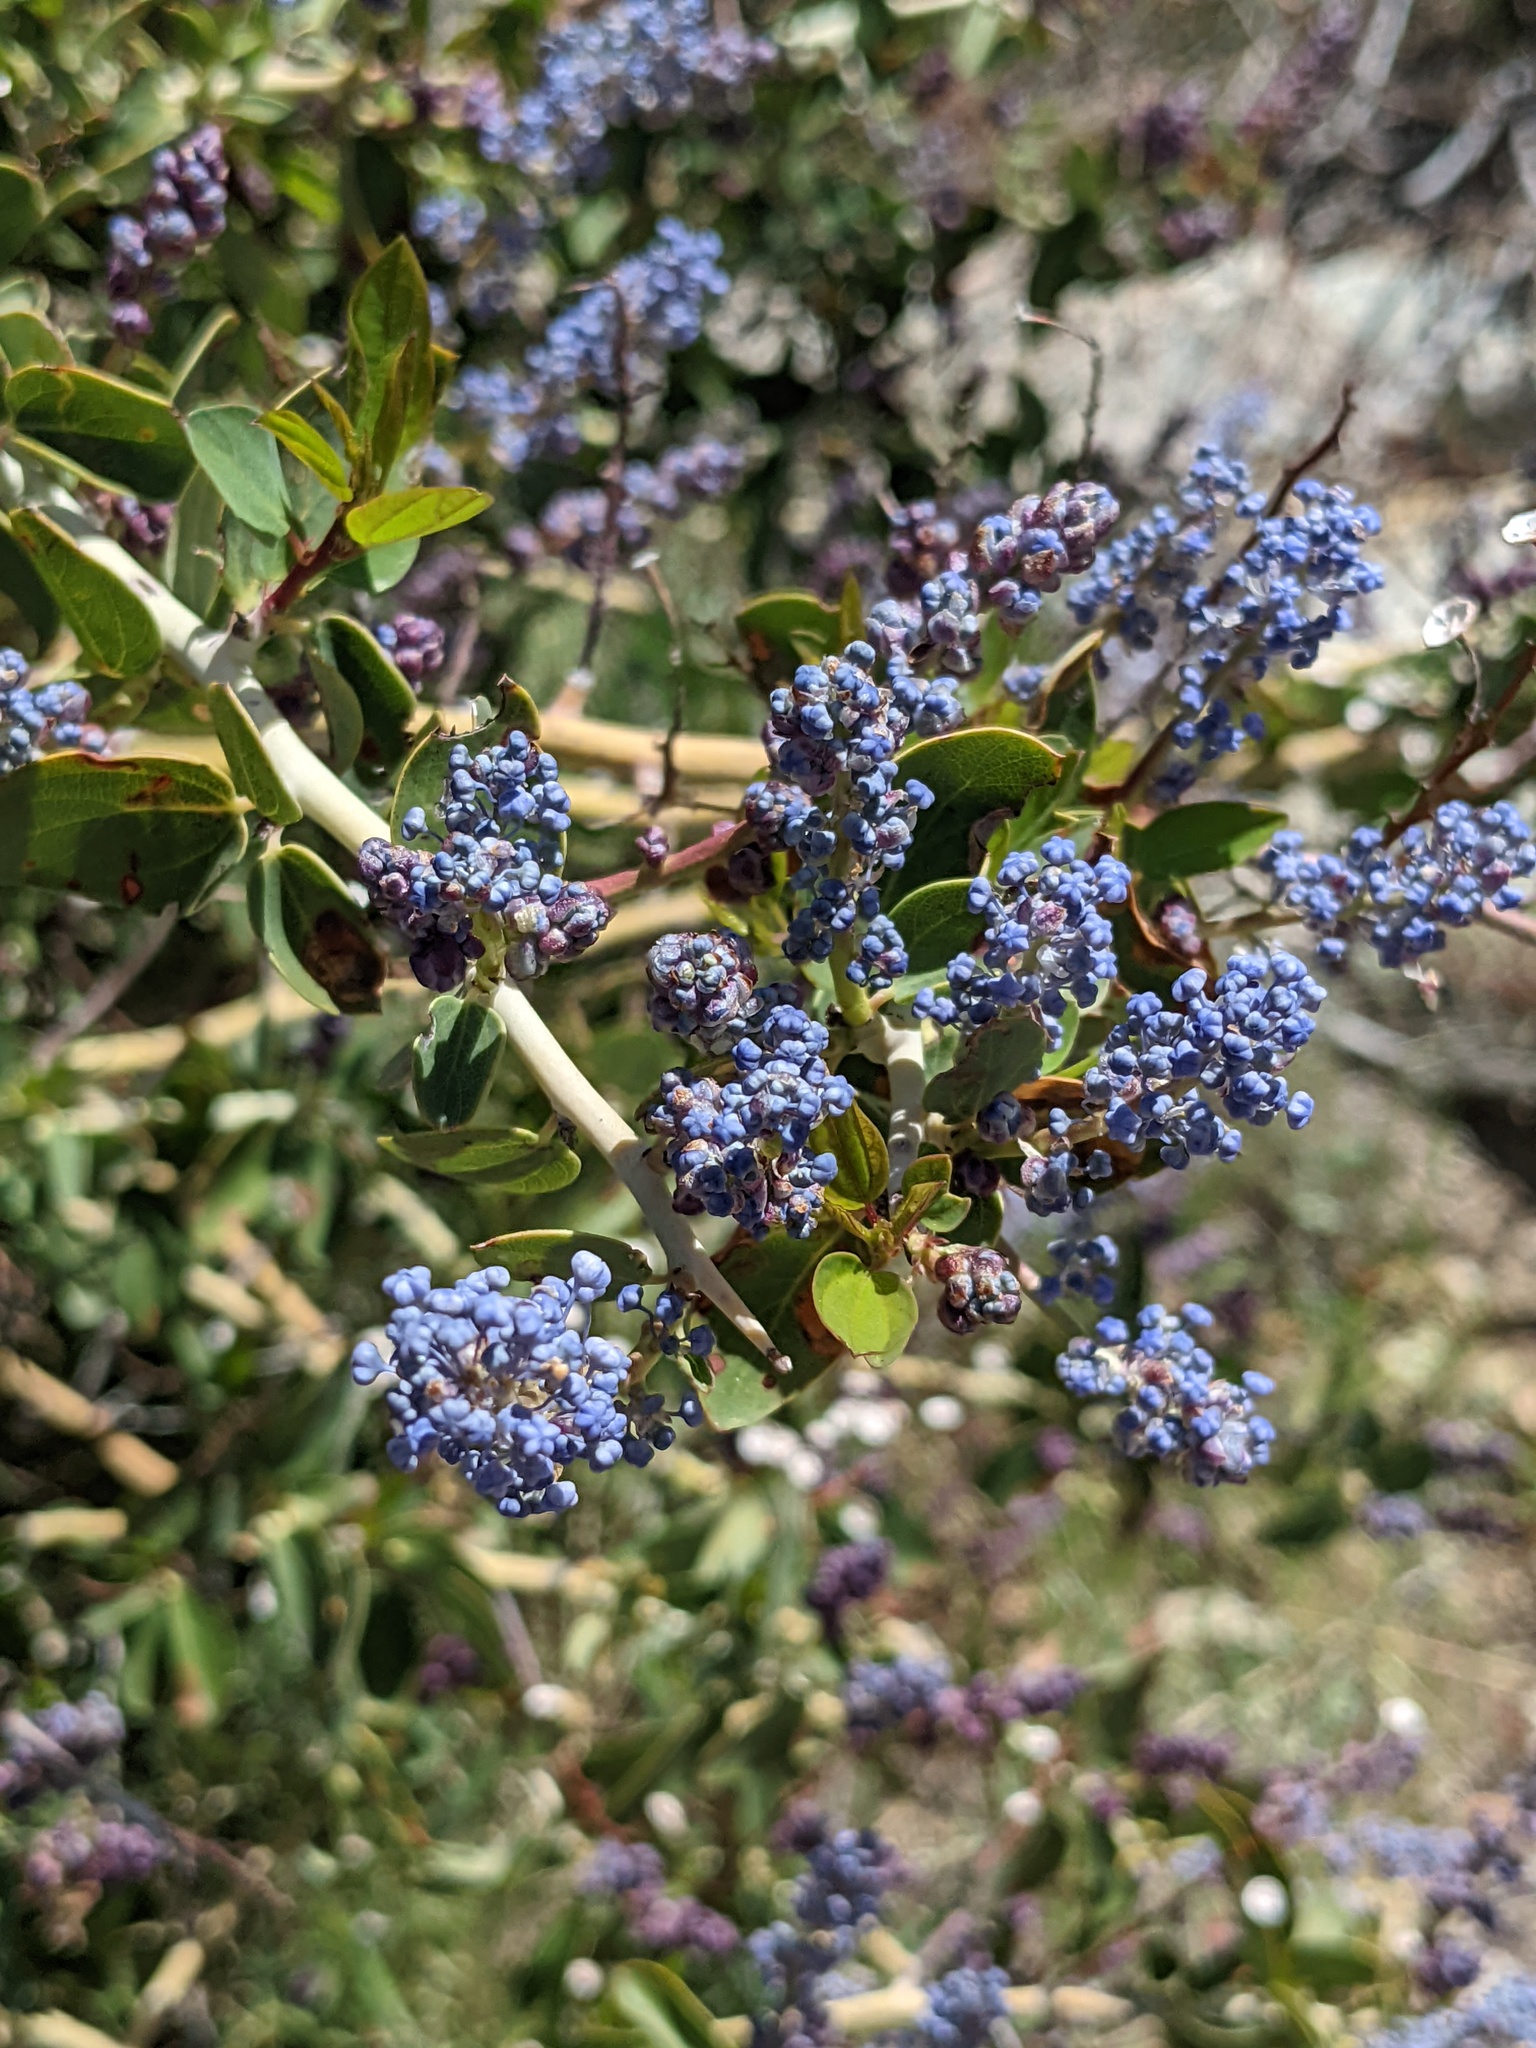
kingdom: Plantae
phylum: Tracheophyta
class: Magnoliopsida
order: Rosales
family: Rhamnaceae
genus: Ceanothus
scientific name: Ceanothus leucodermis
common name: Chaparral whitethorn
